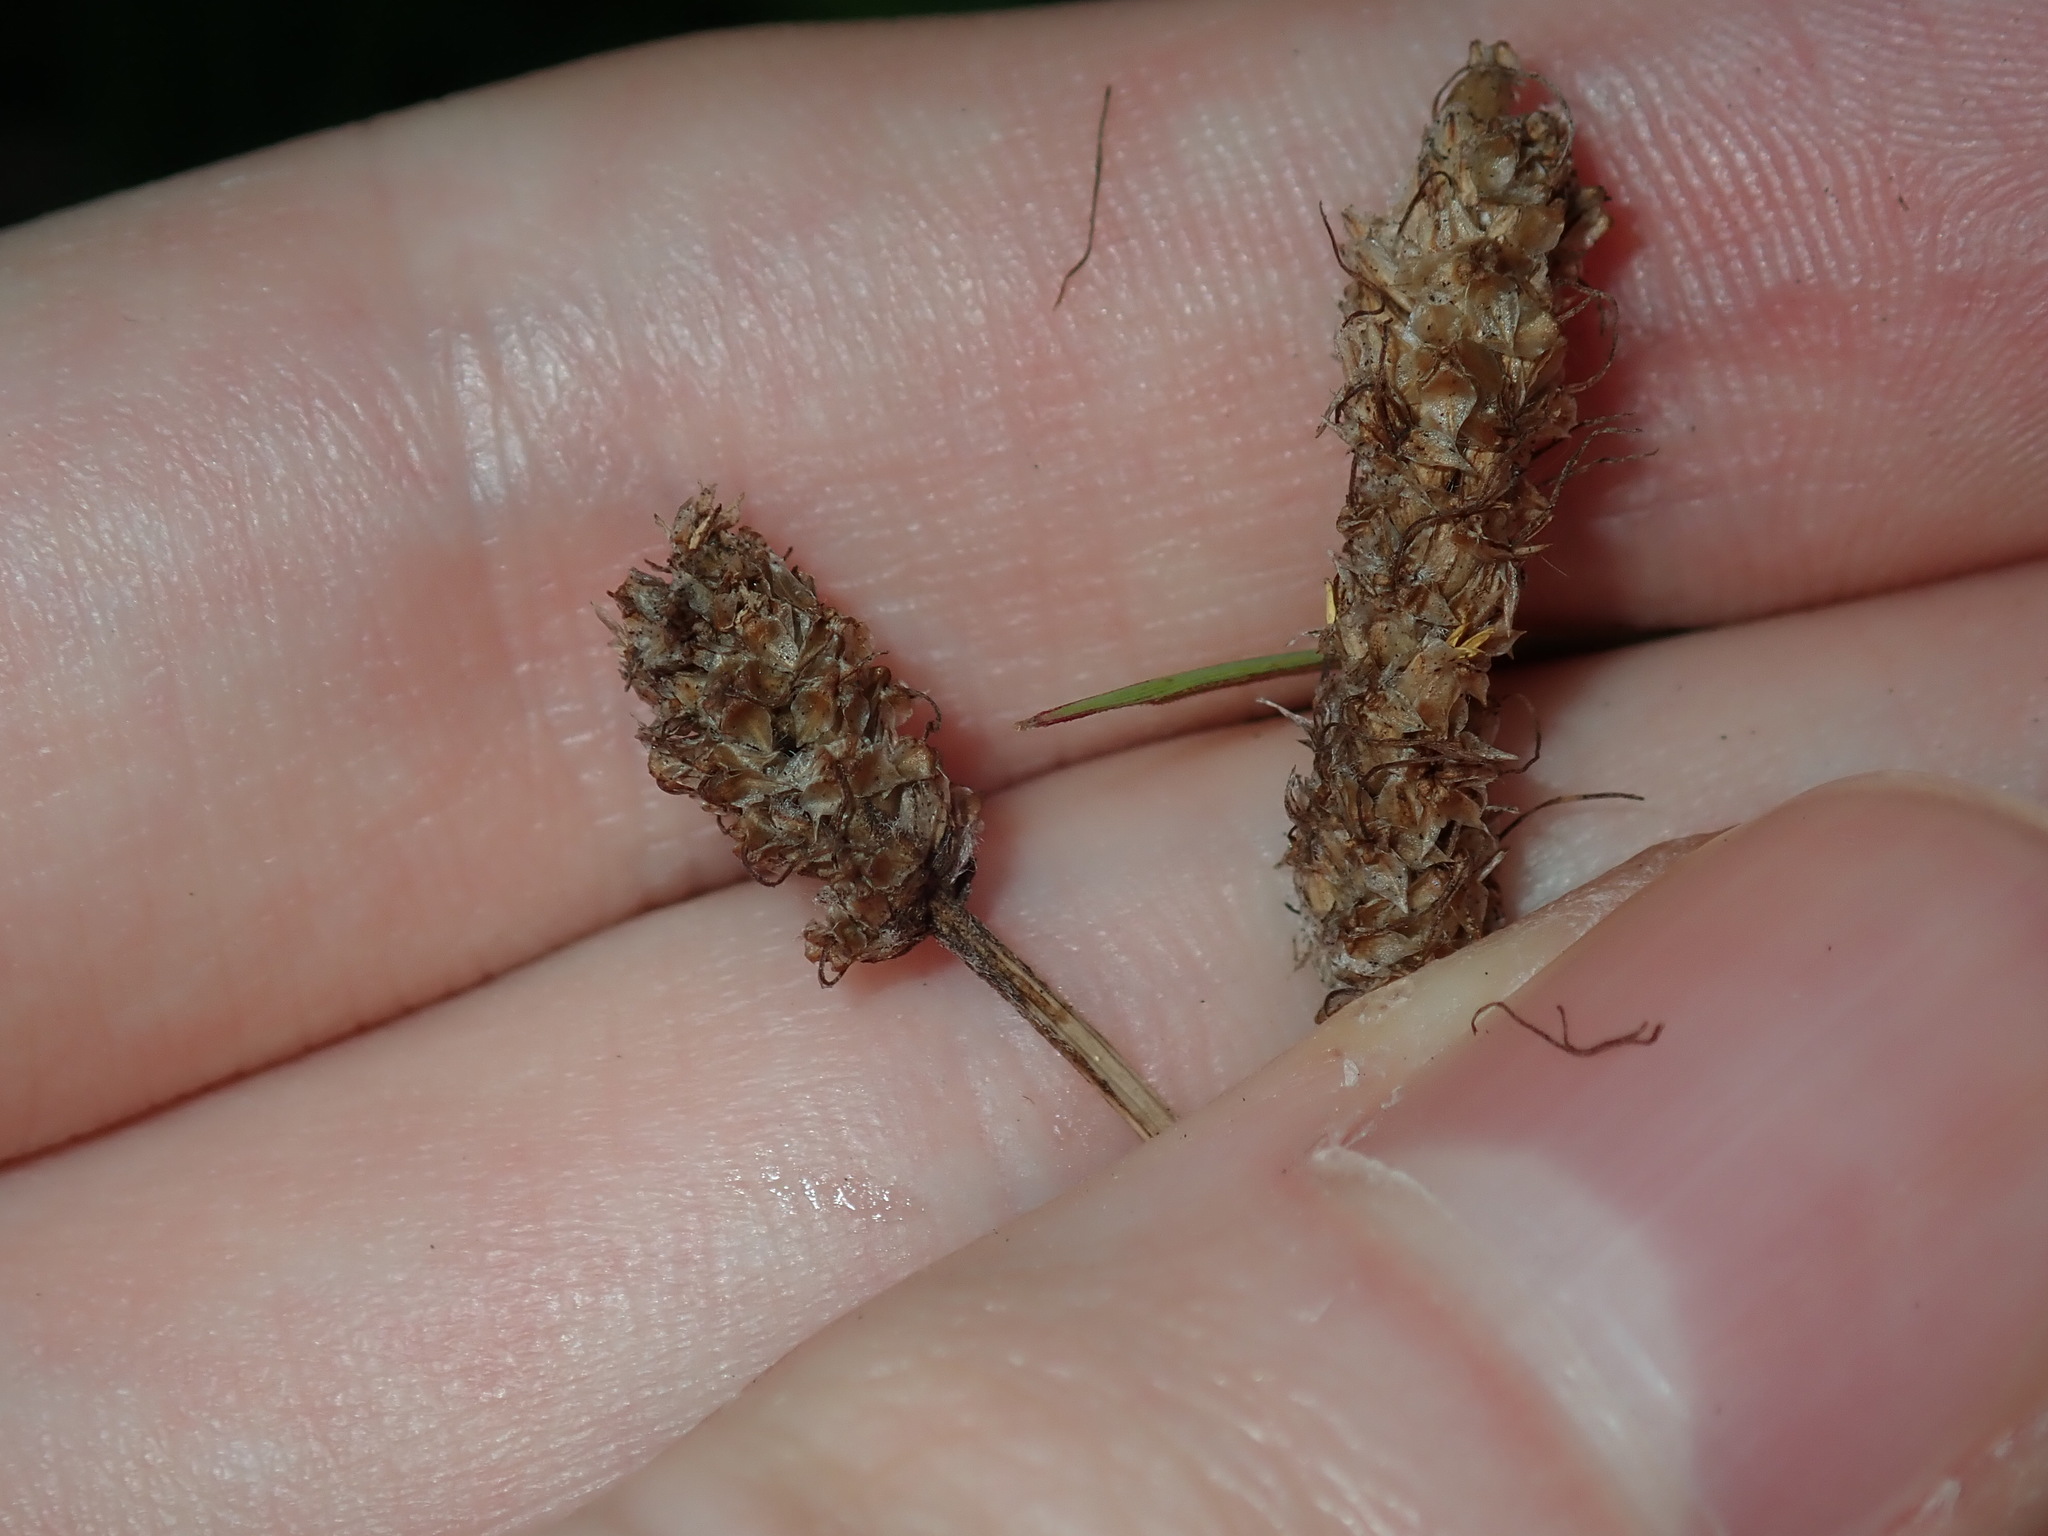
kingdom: Plantae
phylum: Tracheophyta
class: Magnoliopsida
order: Lamiales
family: Plantaginaceae
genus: Plantago
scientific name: Plantago lanceolata
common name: Ribwort plantain
